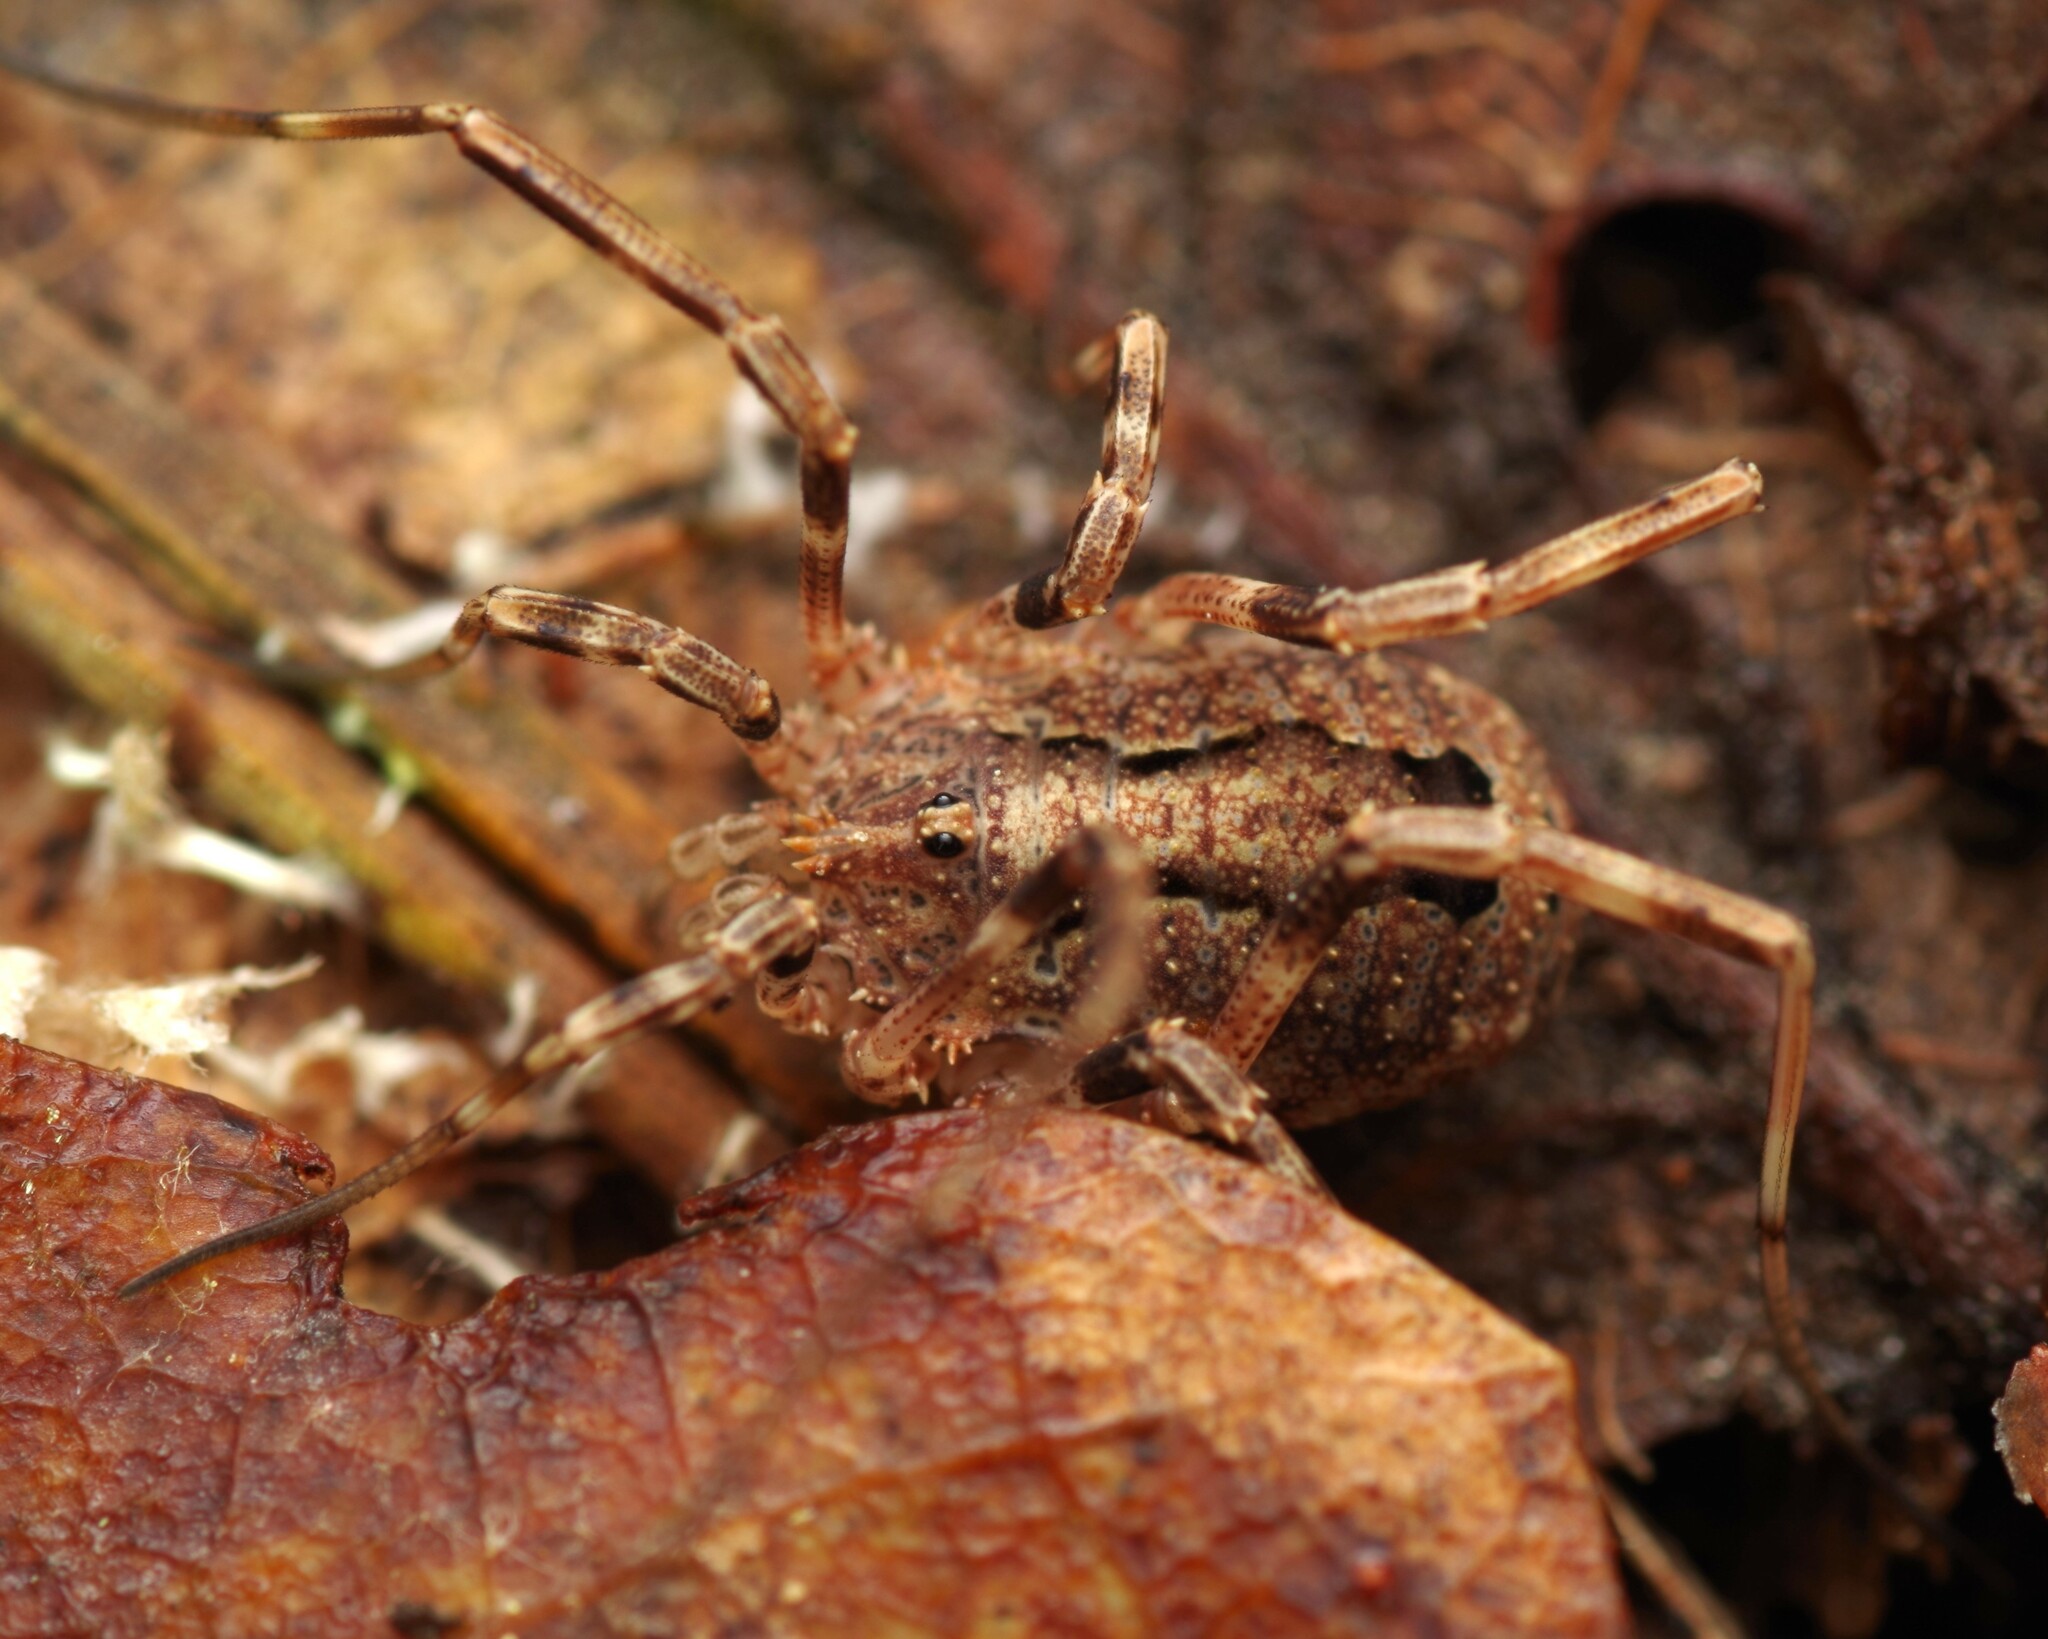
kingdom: Animalia
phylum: Arthropoda
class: Arachnida
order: Opiliones
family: Phalangiidae
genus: Odiellus
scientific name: Odiellus spinosus
